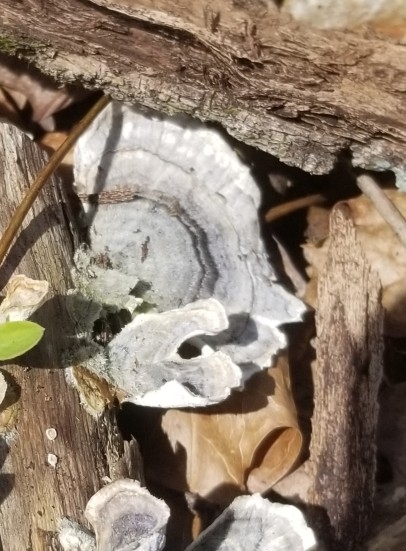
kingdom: Fungi
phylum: Basidiomycota
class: Agaricomycetes
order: Polyporales
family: Polyporaceae
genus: Trametes
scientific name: Trametes versicolor
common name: Turkeytail
